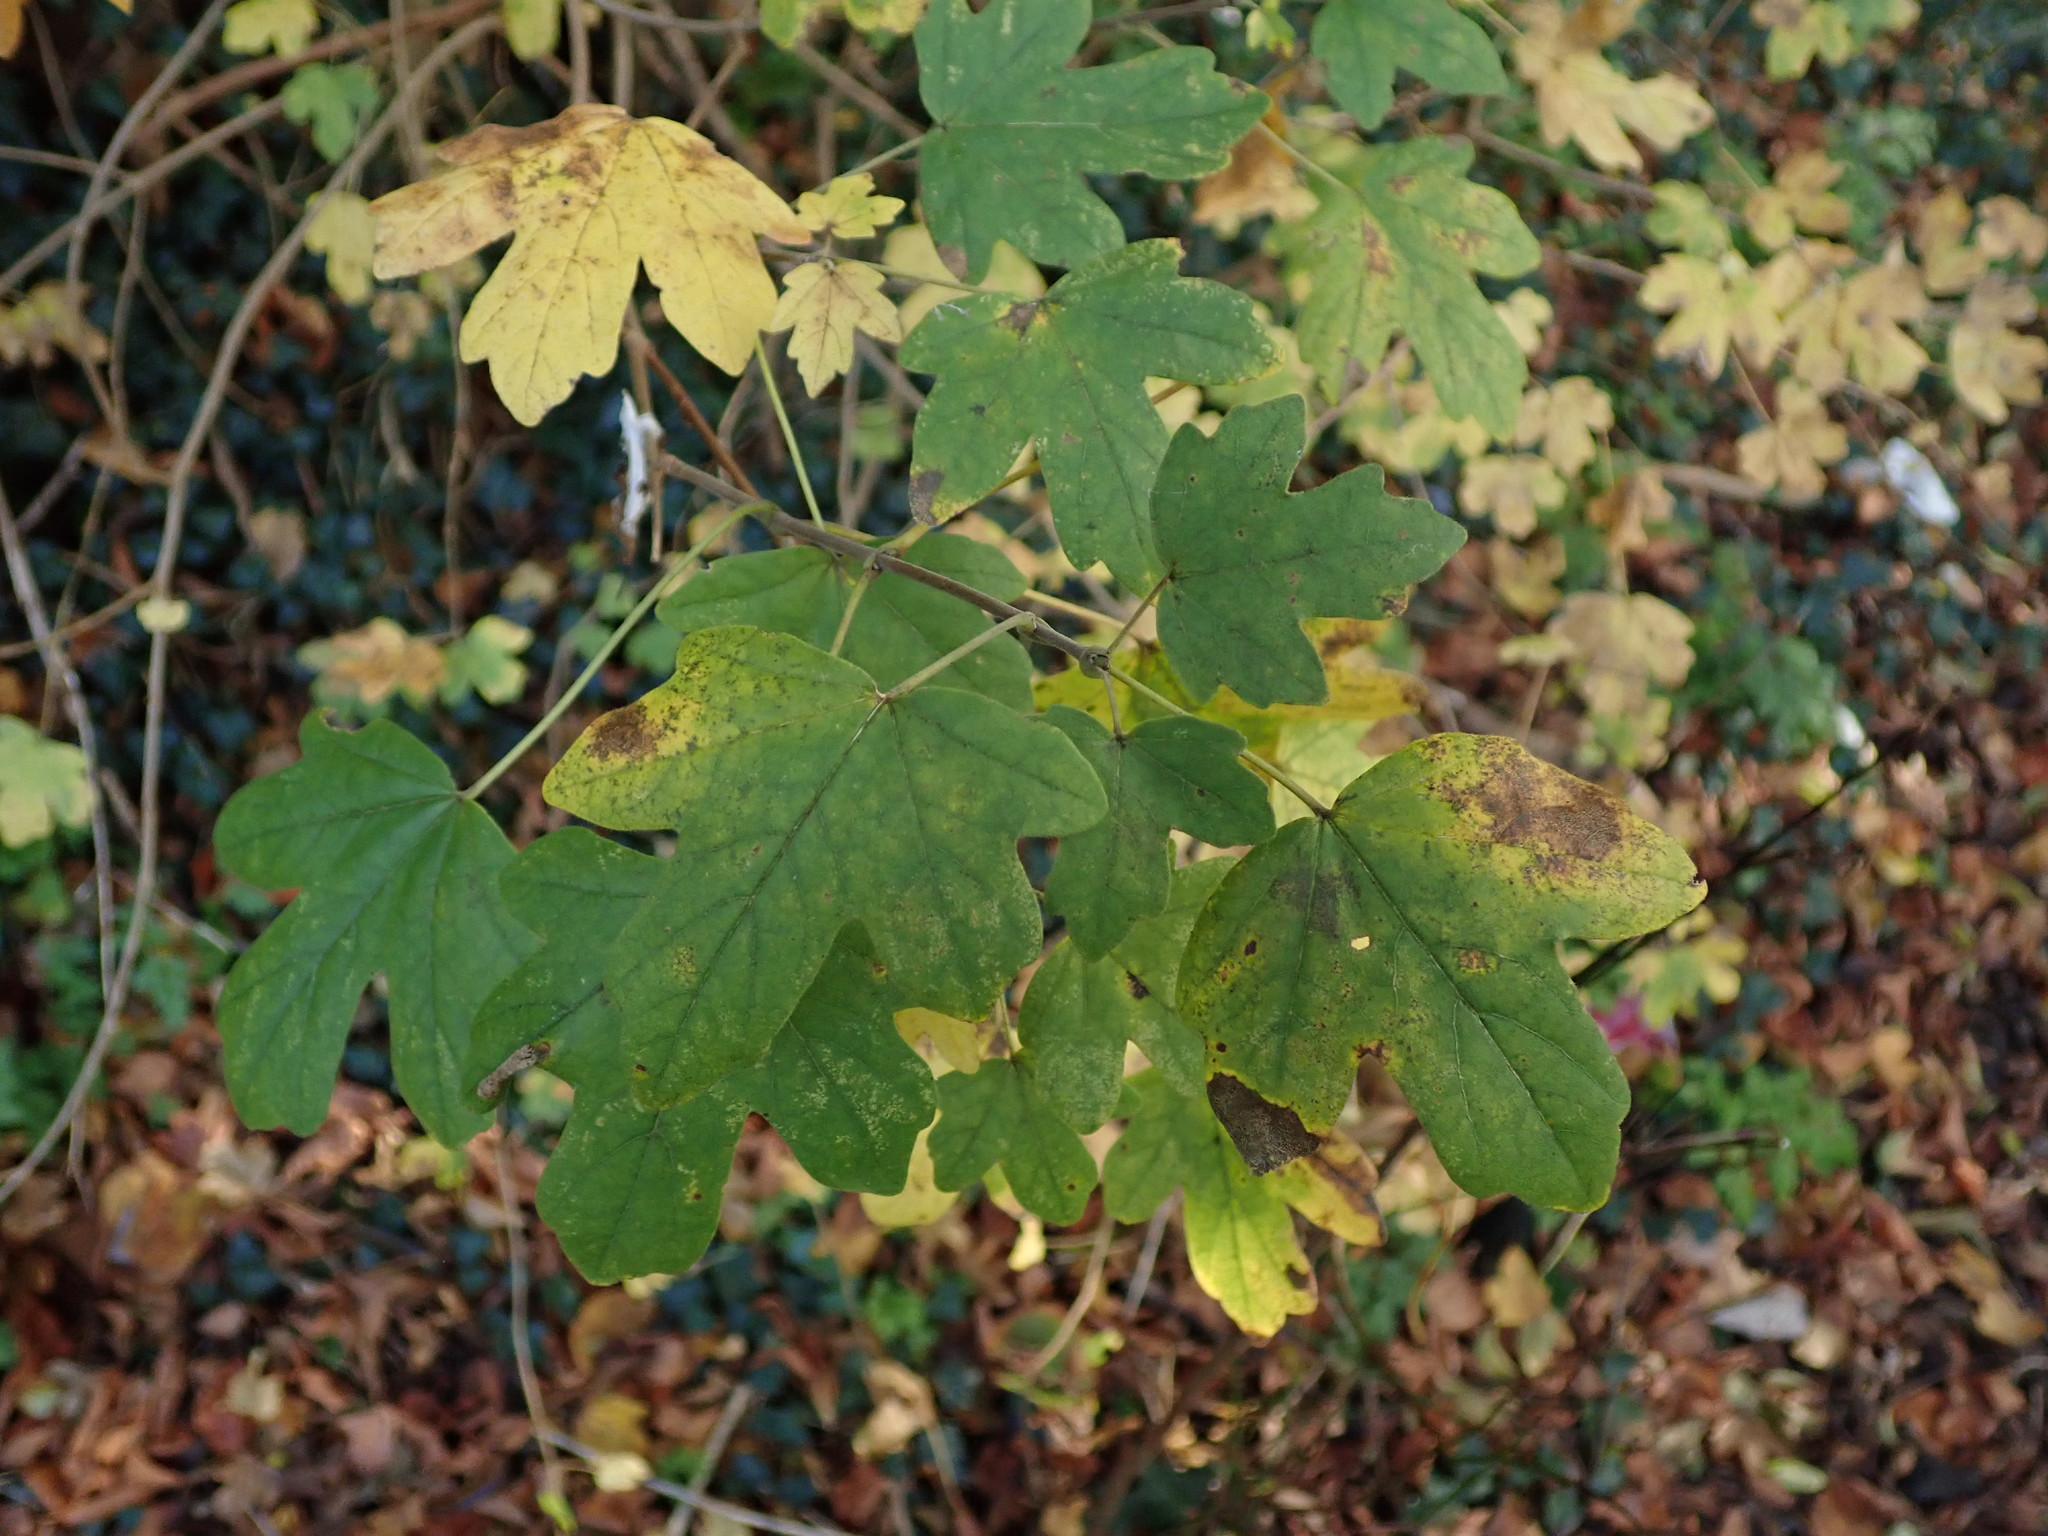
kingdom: Plantae
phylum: Tracheophyta
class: Magnoliopsida
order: Sapindales
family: Sapindaceae
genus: Acer
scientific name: Acer campestre
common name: Field maple
